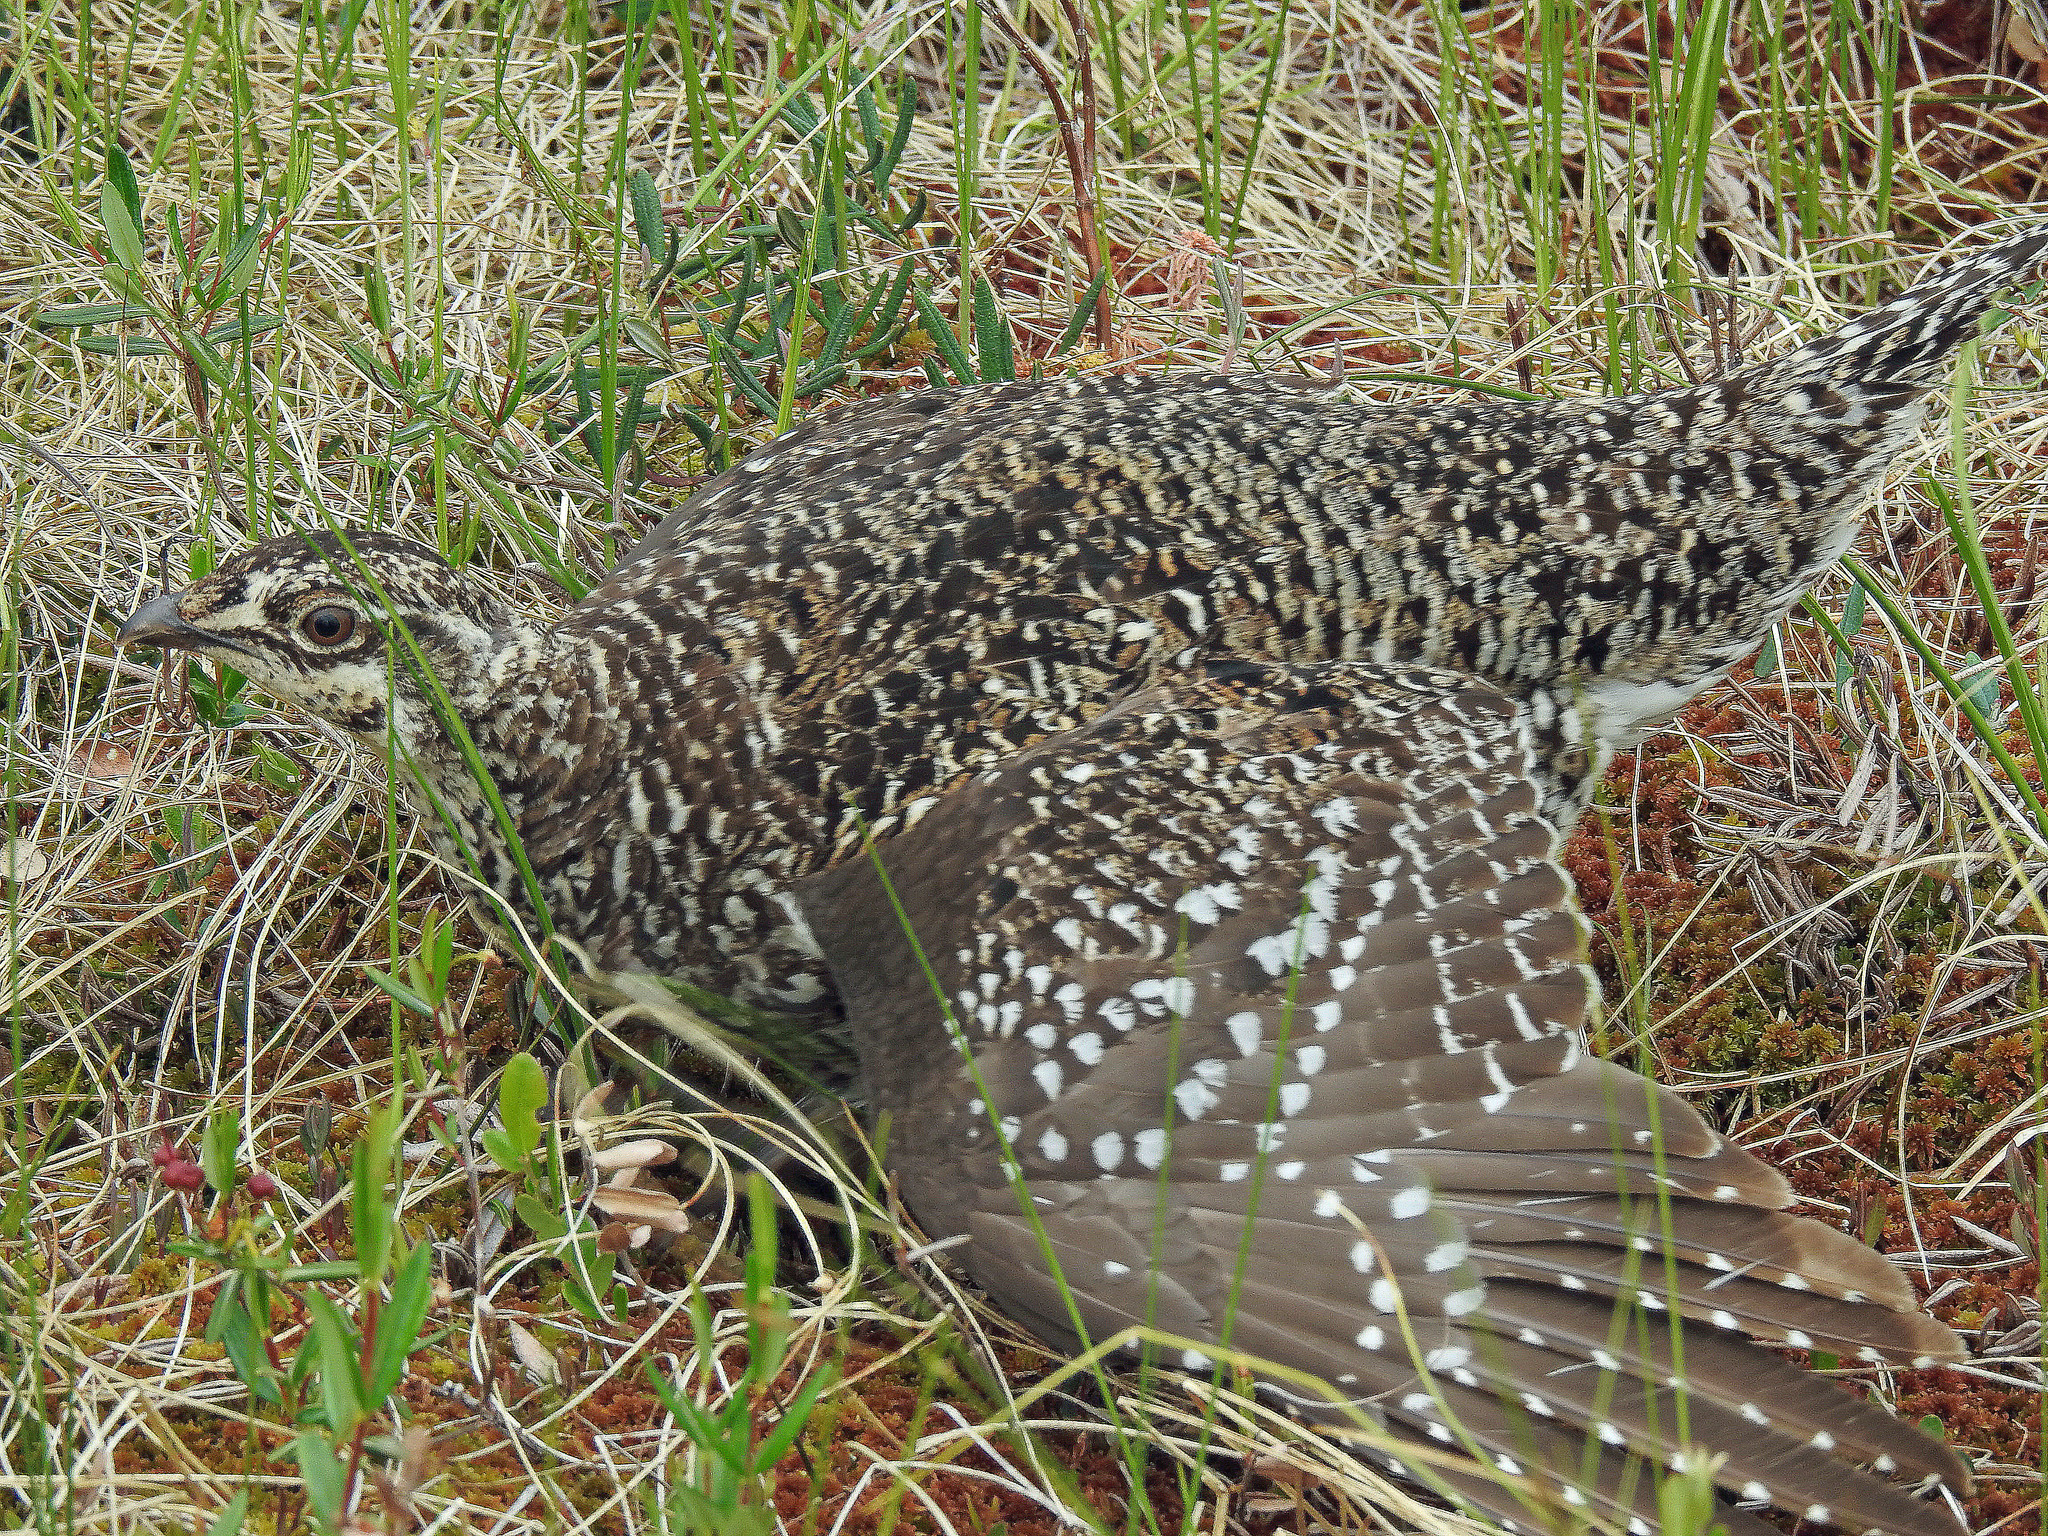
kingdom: Animalia
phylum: Chordata
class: Aves
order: Galliformes
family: Phasianidae
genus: Tympanuchus
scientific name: Tympanuchus phasianellus
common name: Sharp-tailed grouse
